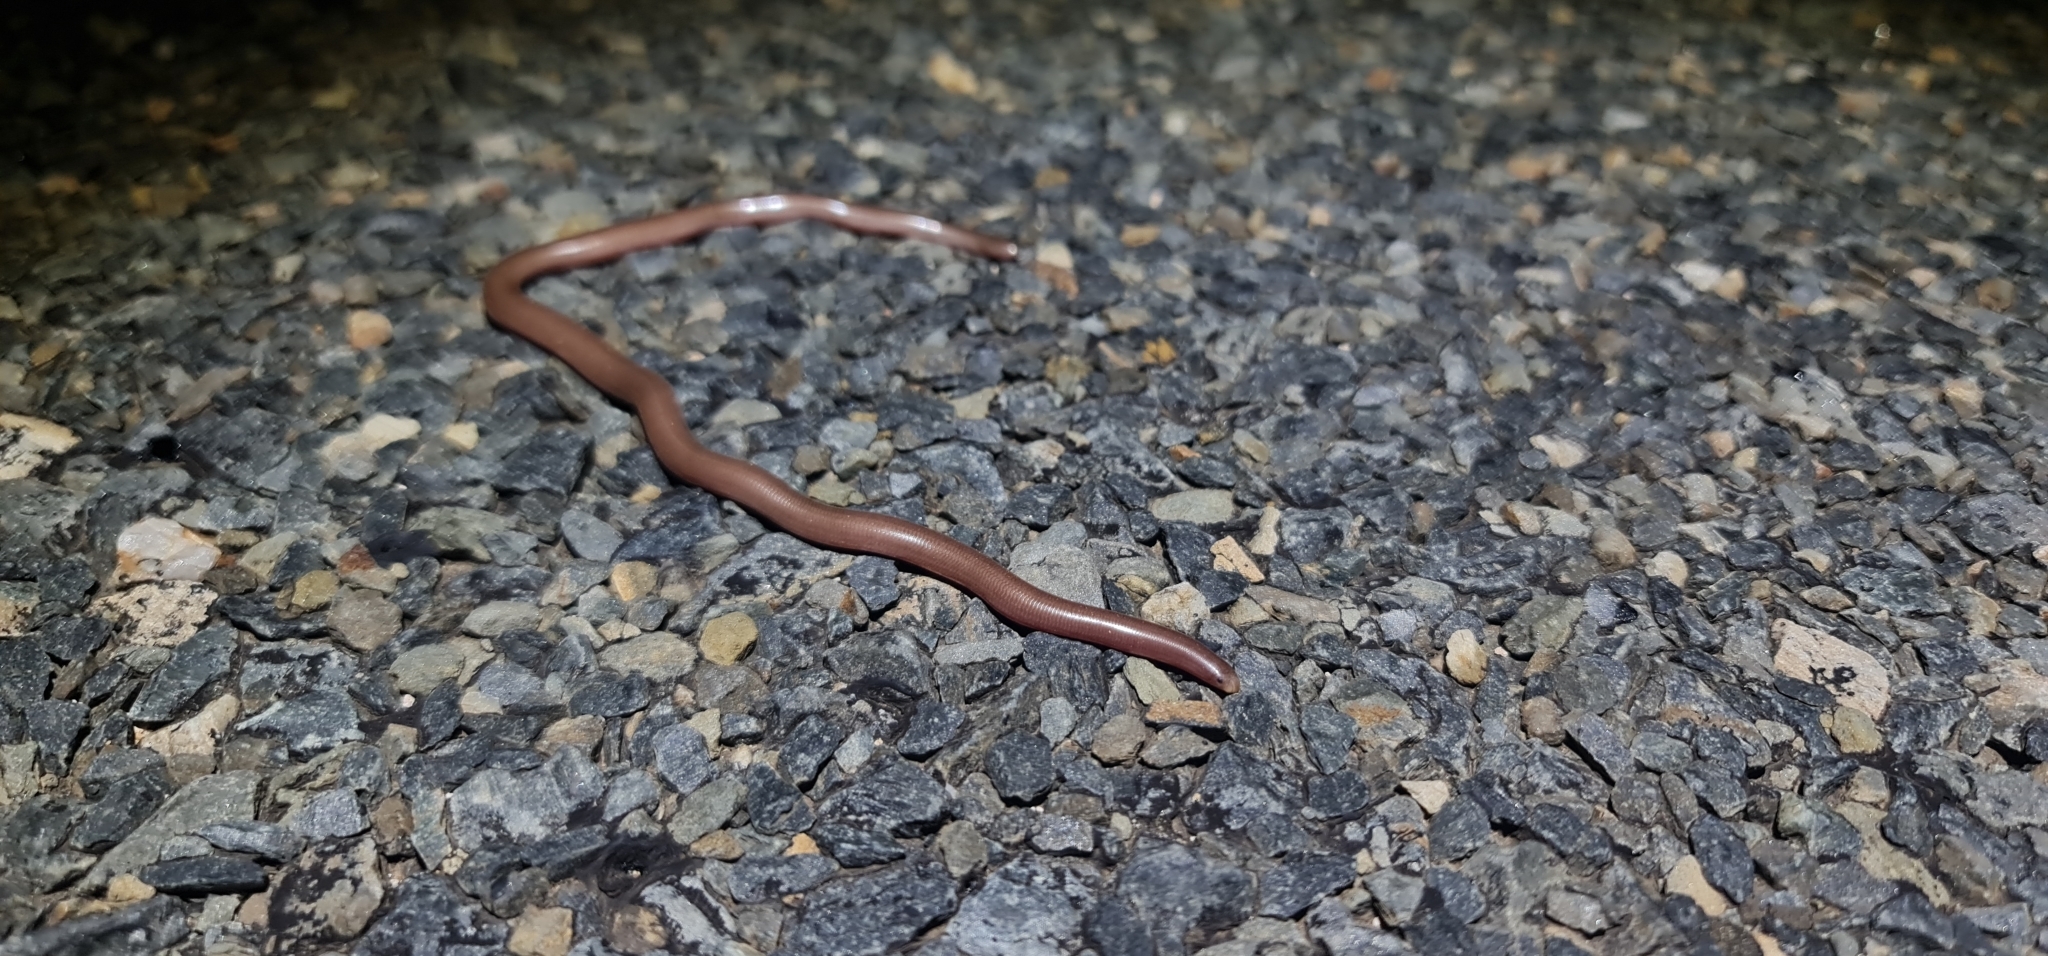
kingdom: Animalia
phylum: Chordata
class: Squamata
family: Typhlopidae
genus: Anilios
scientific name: Anilios bituberculatus
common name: Prong-snouted blind snake
